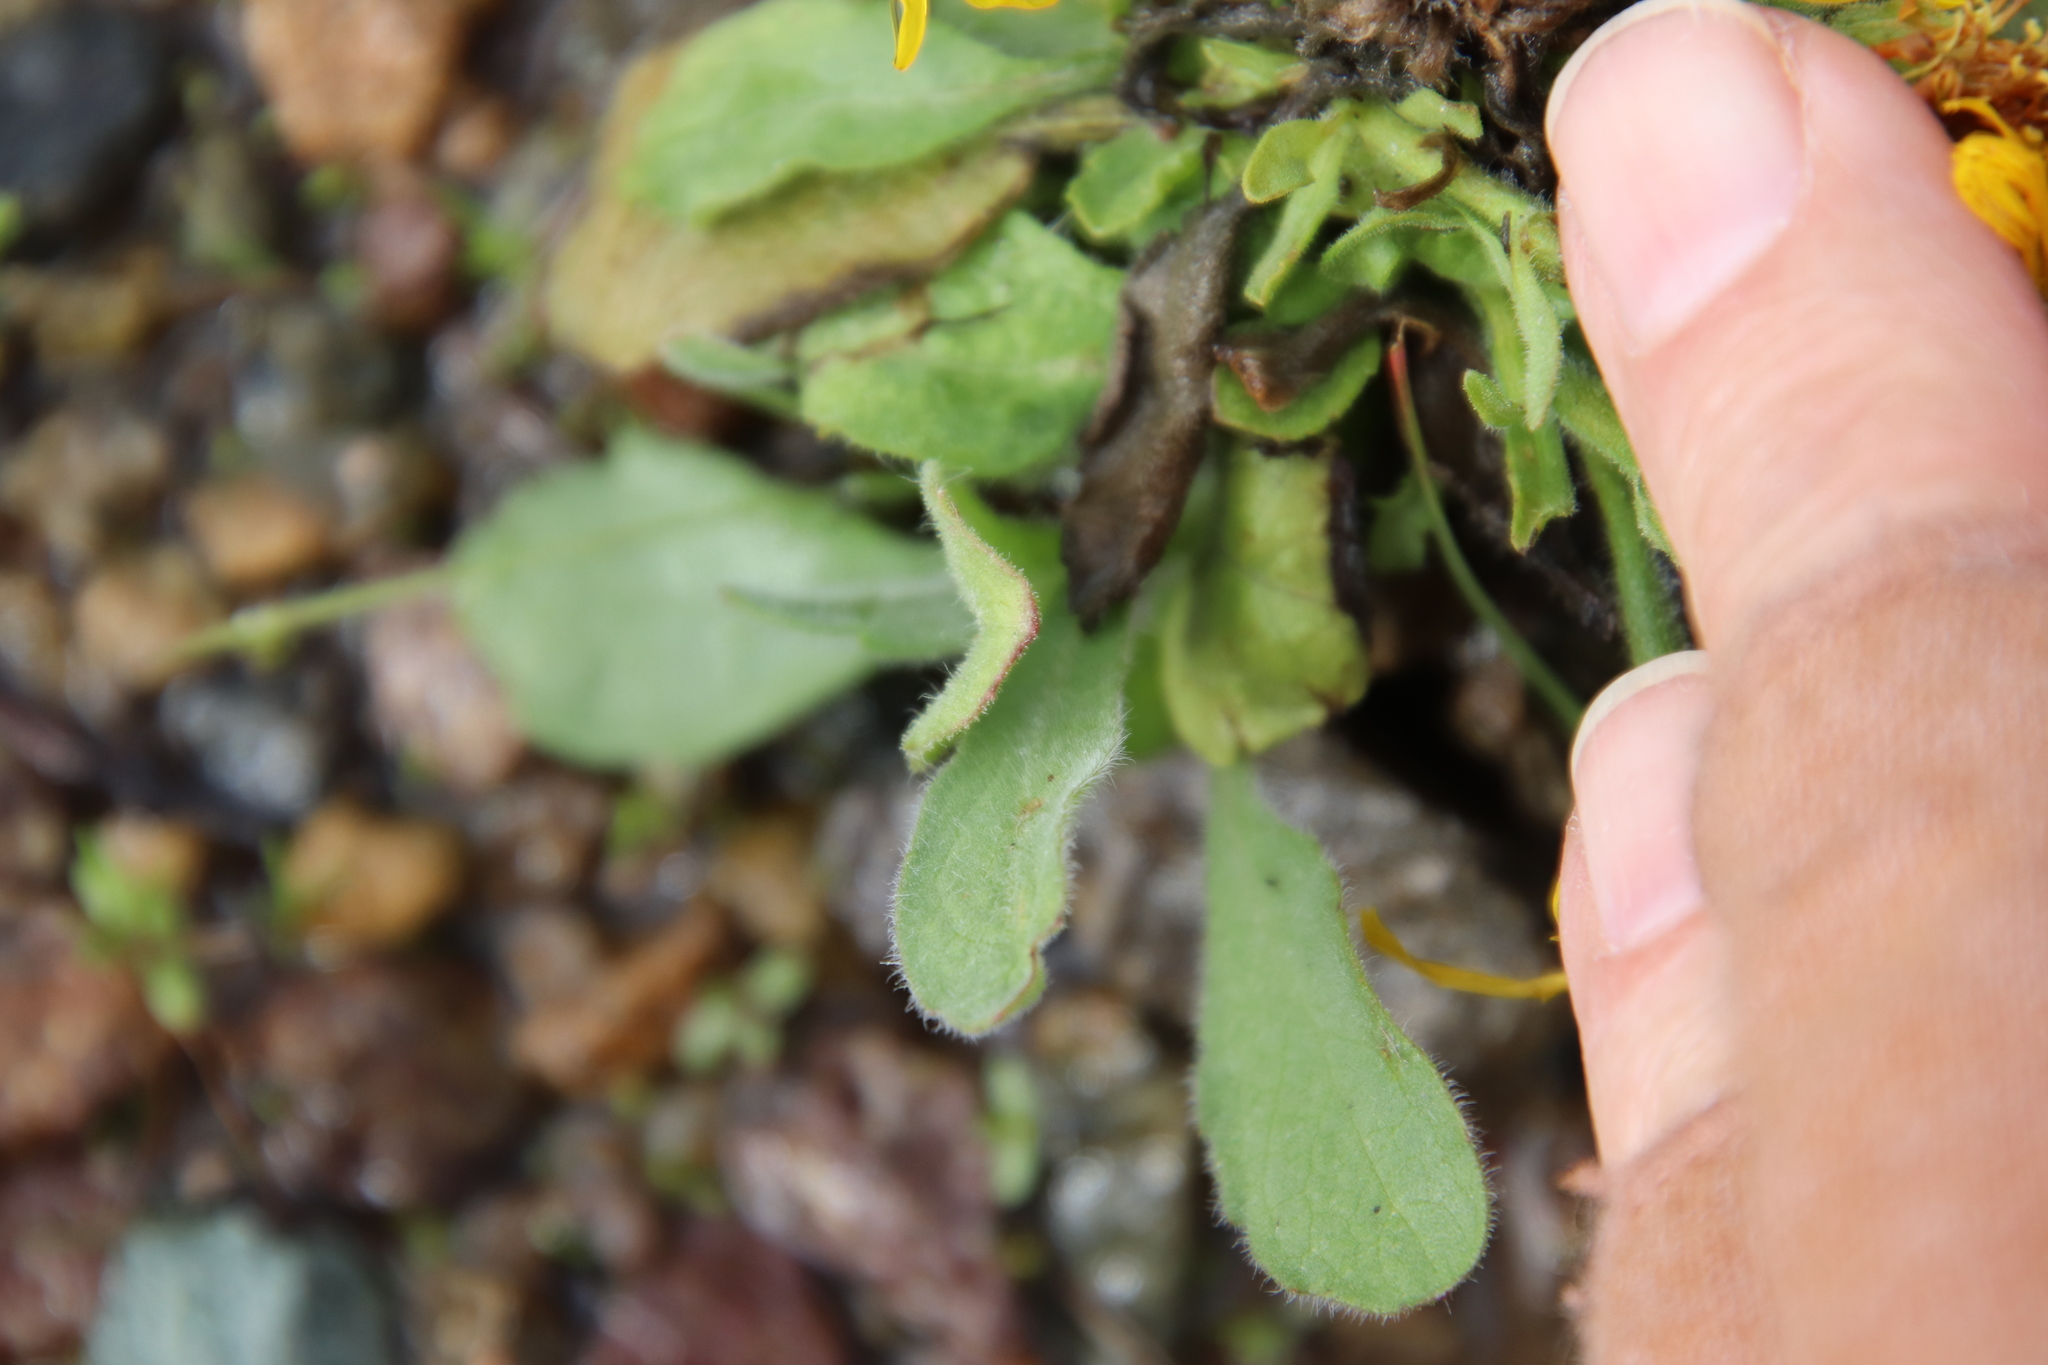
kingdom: Plantae
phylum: Tracheophyta
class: Magnoliopsida
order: Asterales
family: Asteraceae
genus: Heterotheca
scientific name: Heterotheca grandiflora
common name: Telegraphweed
